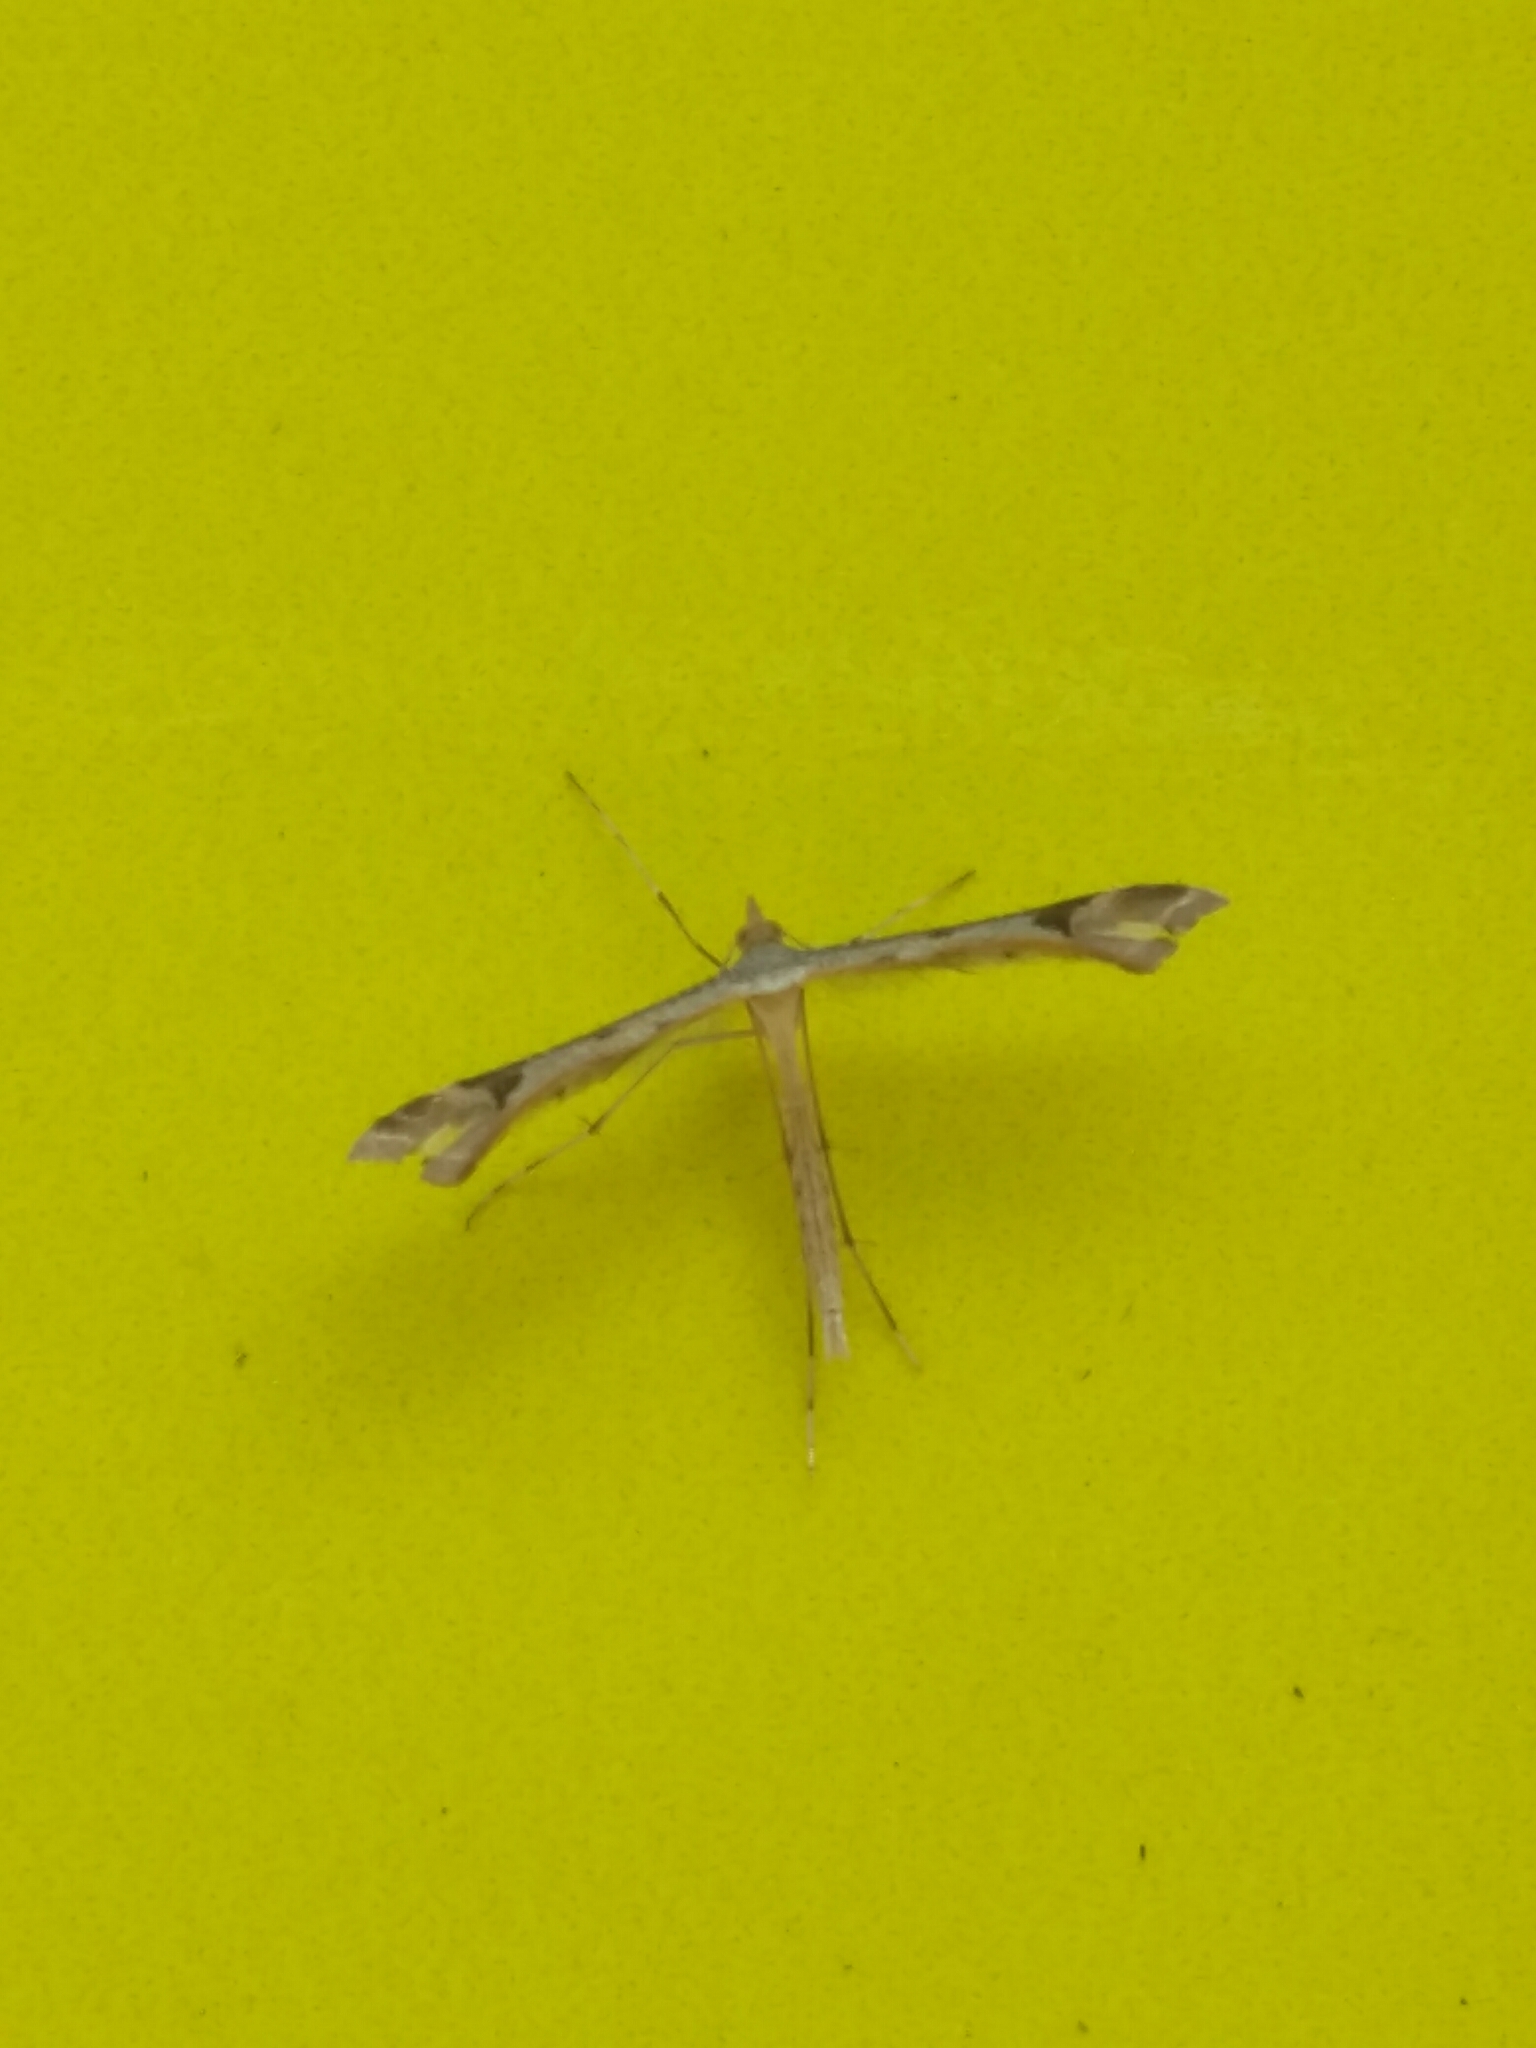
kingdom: Animalia
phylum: Arthropoda
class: Insecta
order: Lepidoptera
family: Pterophoridae
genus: Sinpunctiptilia
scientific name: Sinpunctiptilia emissalis
